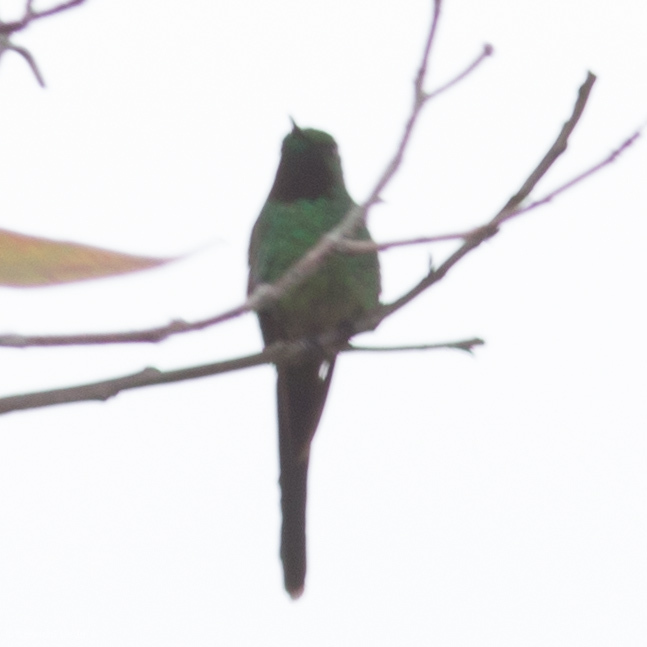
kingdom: Animalia
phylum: Chordata
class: Aves
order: Apodiformes
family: Trochilidae
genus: Lesbia
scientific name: Lesbia nuna
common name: Green-tailed trainbearer
